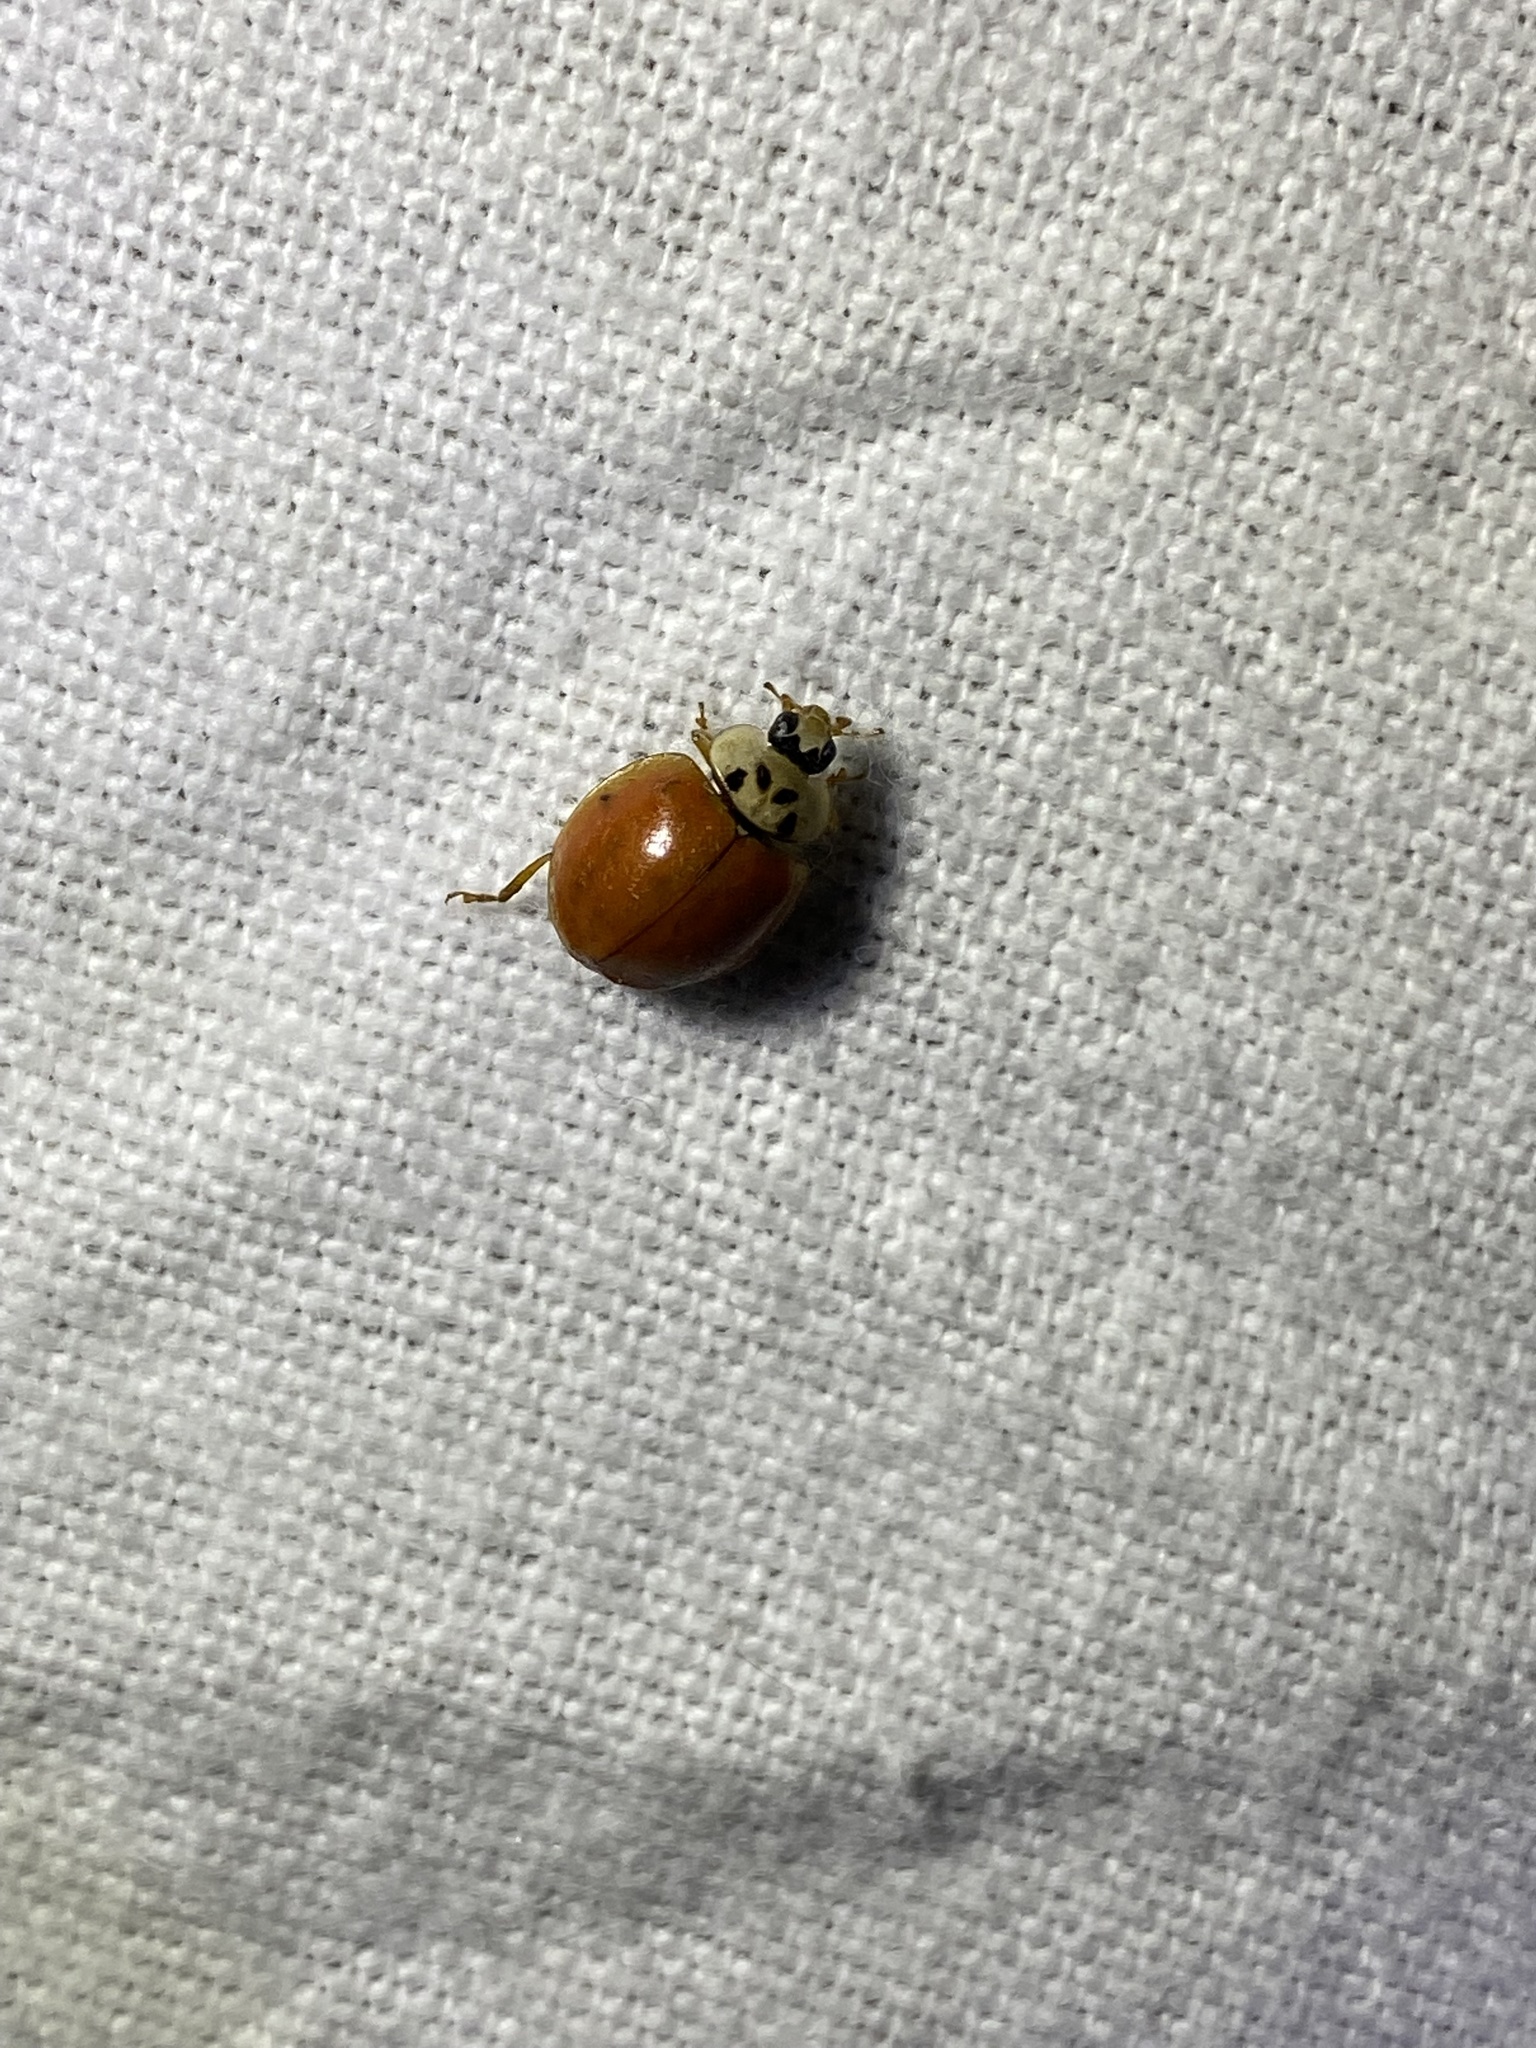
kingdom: Animalia
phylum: Arthropoda
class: Insecta
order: Coleoptera
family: Coccinellidae
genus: Harmonia
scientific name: Harmonia axyridis
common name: Harlequin ladybird
